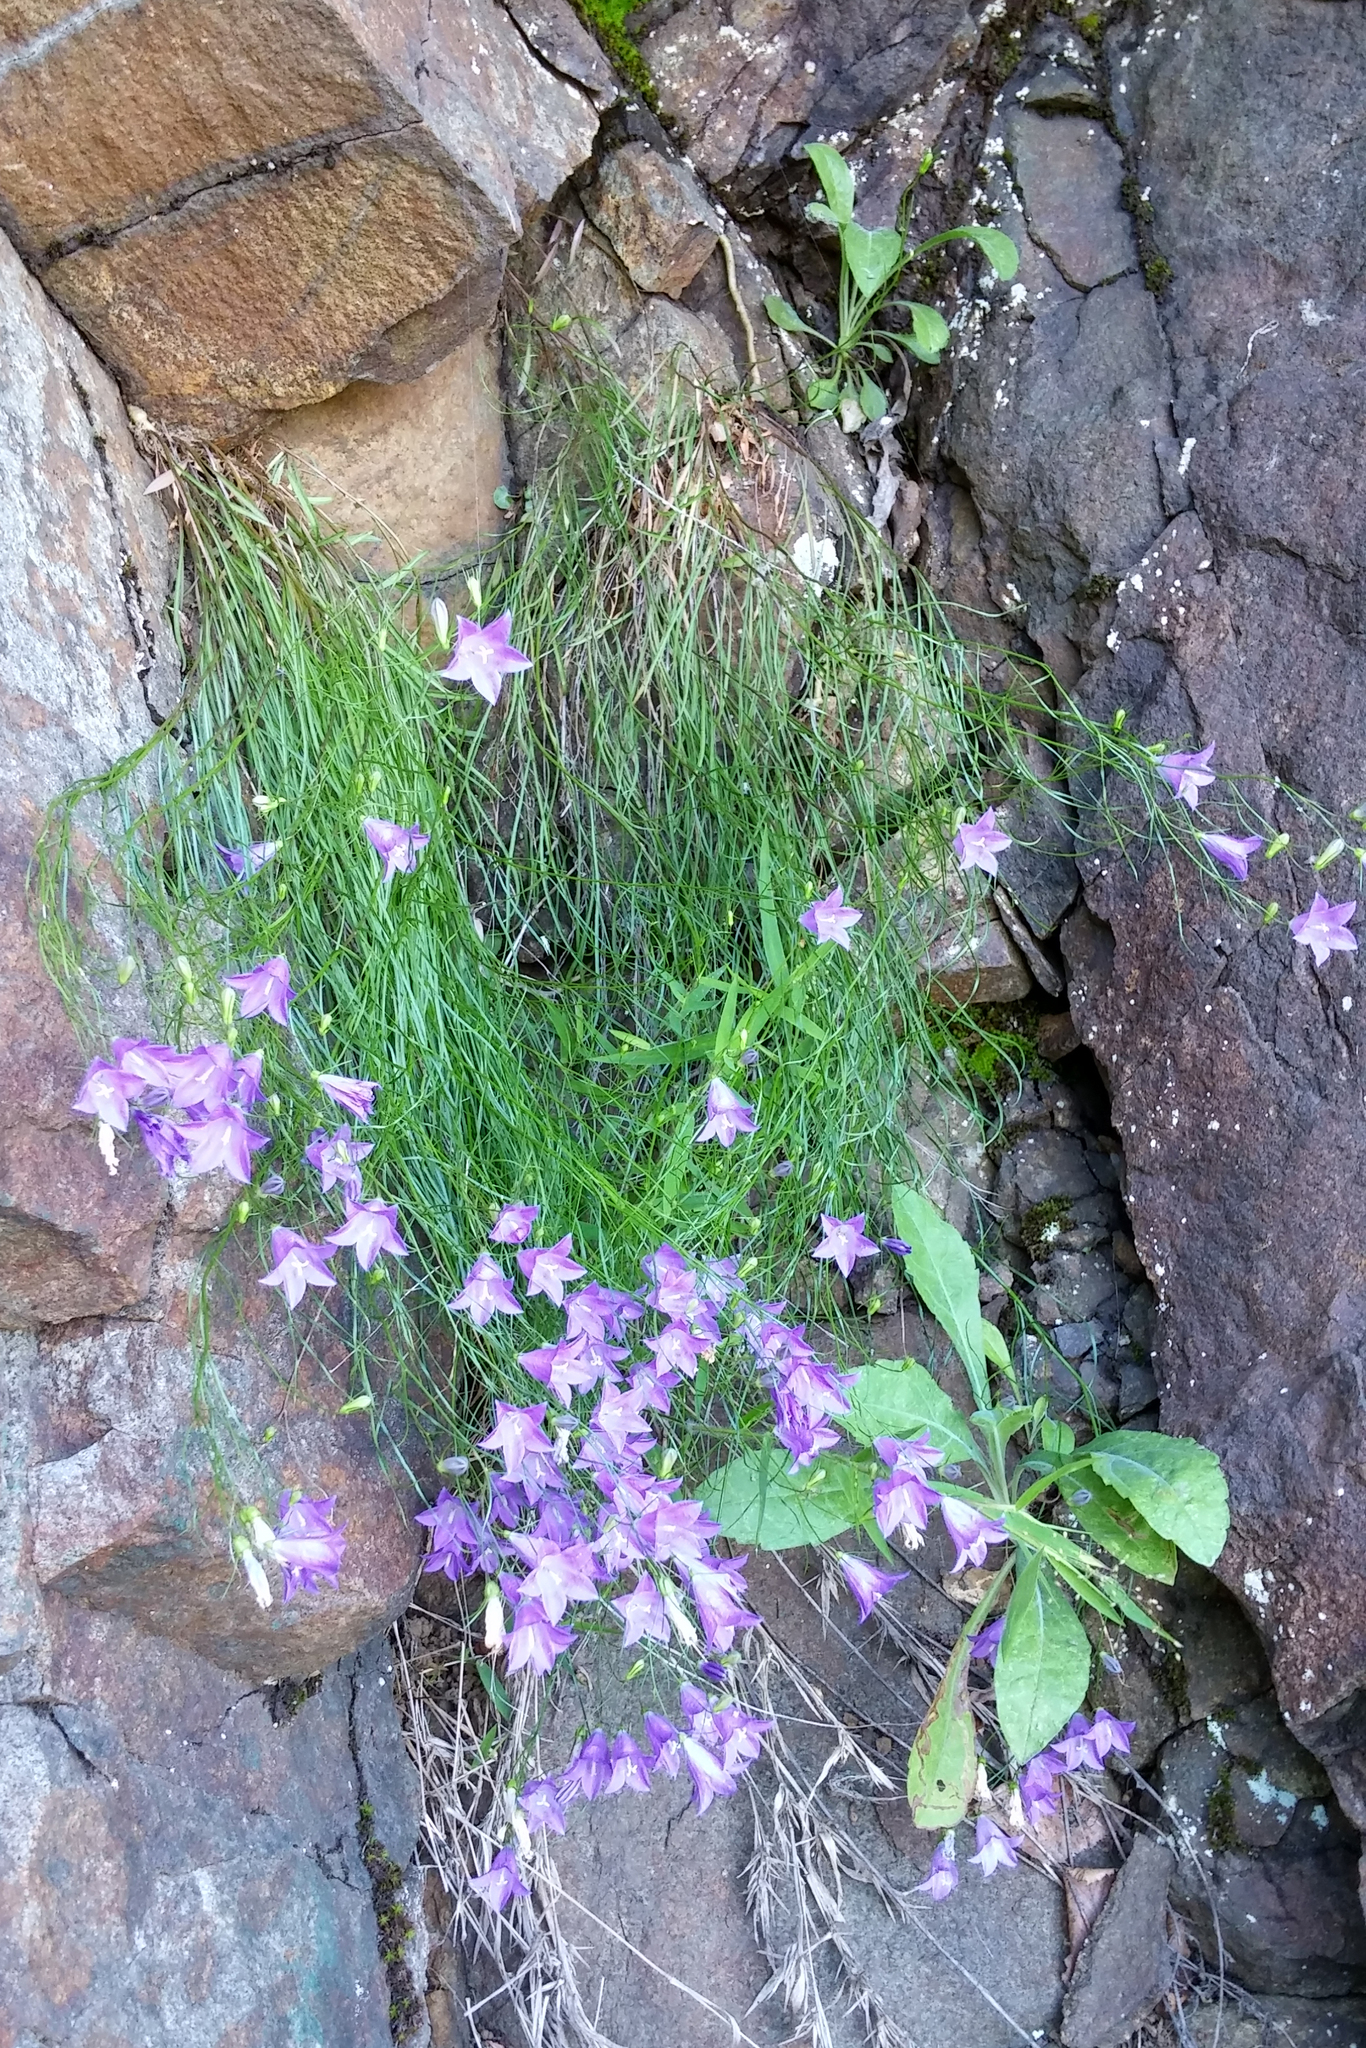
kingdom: Plantae
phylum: Tracheophyta
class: Magnoliopsida
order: Asterales
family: Campanulaceae
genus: Campanula
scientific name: Campanula intercedens
